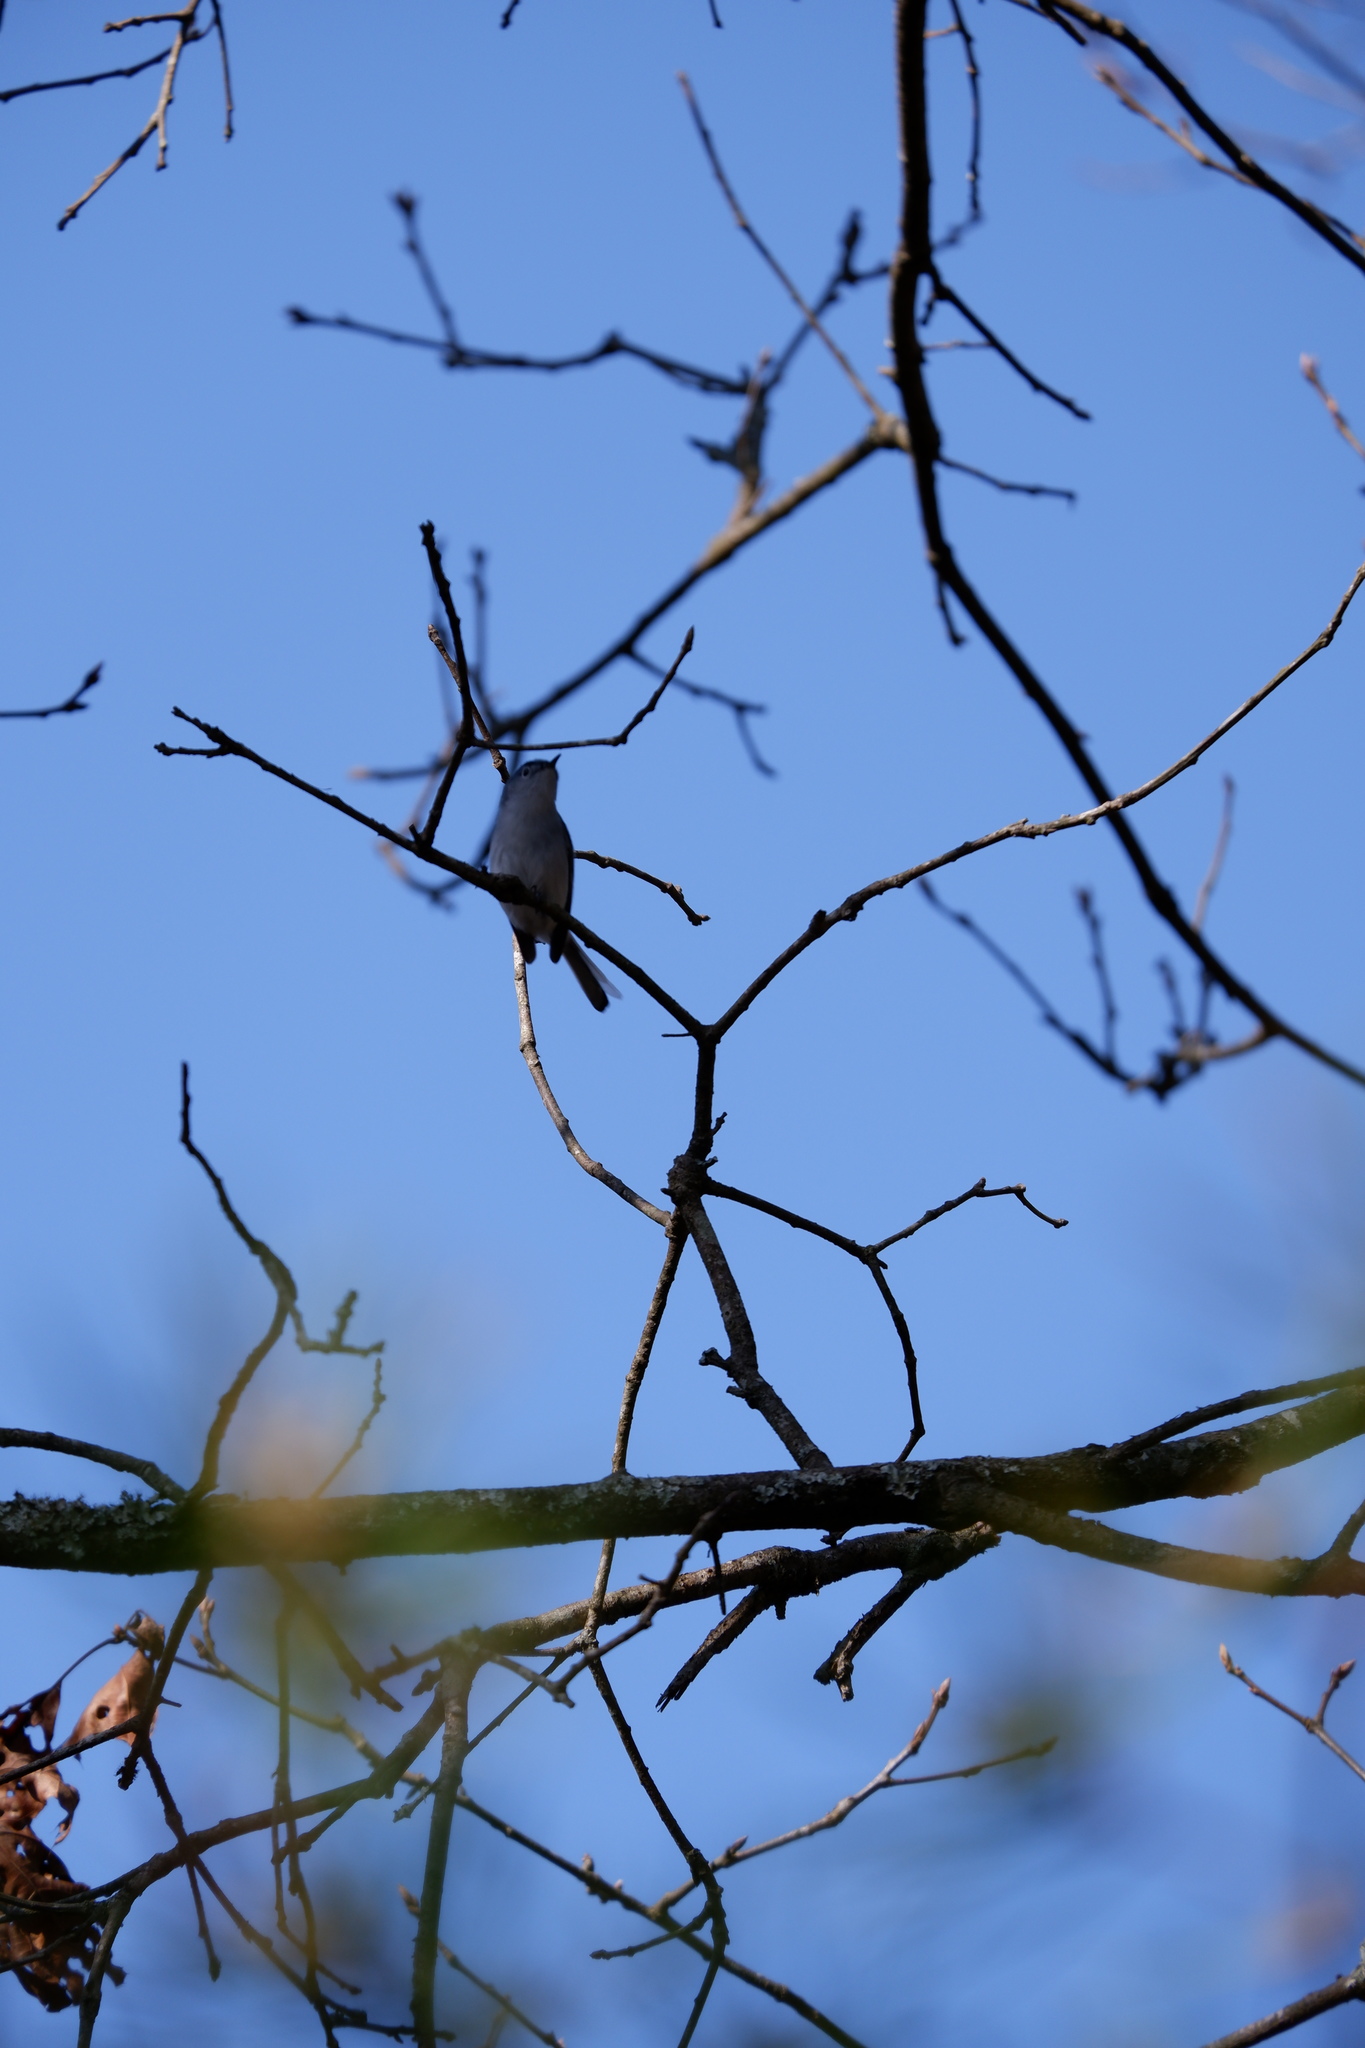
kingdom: Animalia
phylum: Chordata
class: Aves
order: Passeriformes
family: Polioptilidae
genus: Polioptila
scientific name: Polioptila caerulea
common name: Blue-gray gnatcatcher
